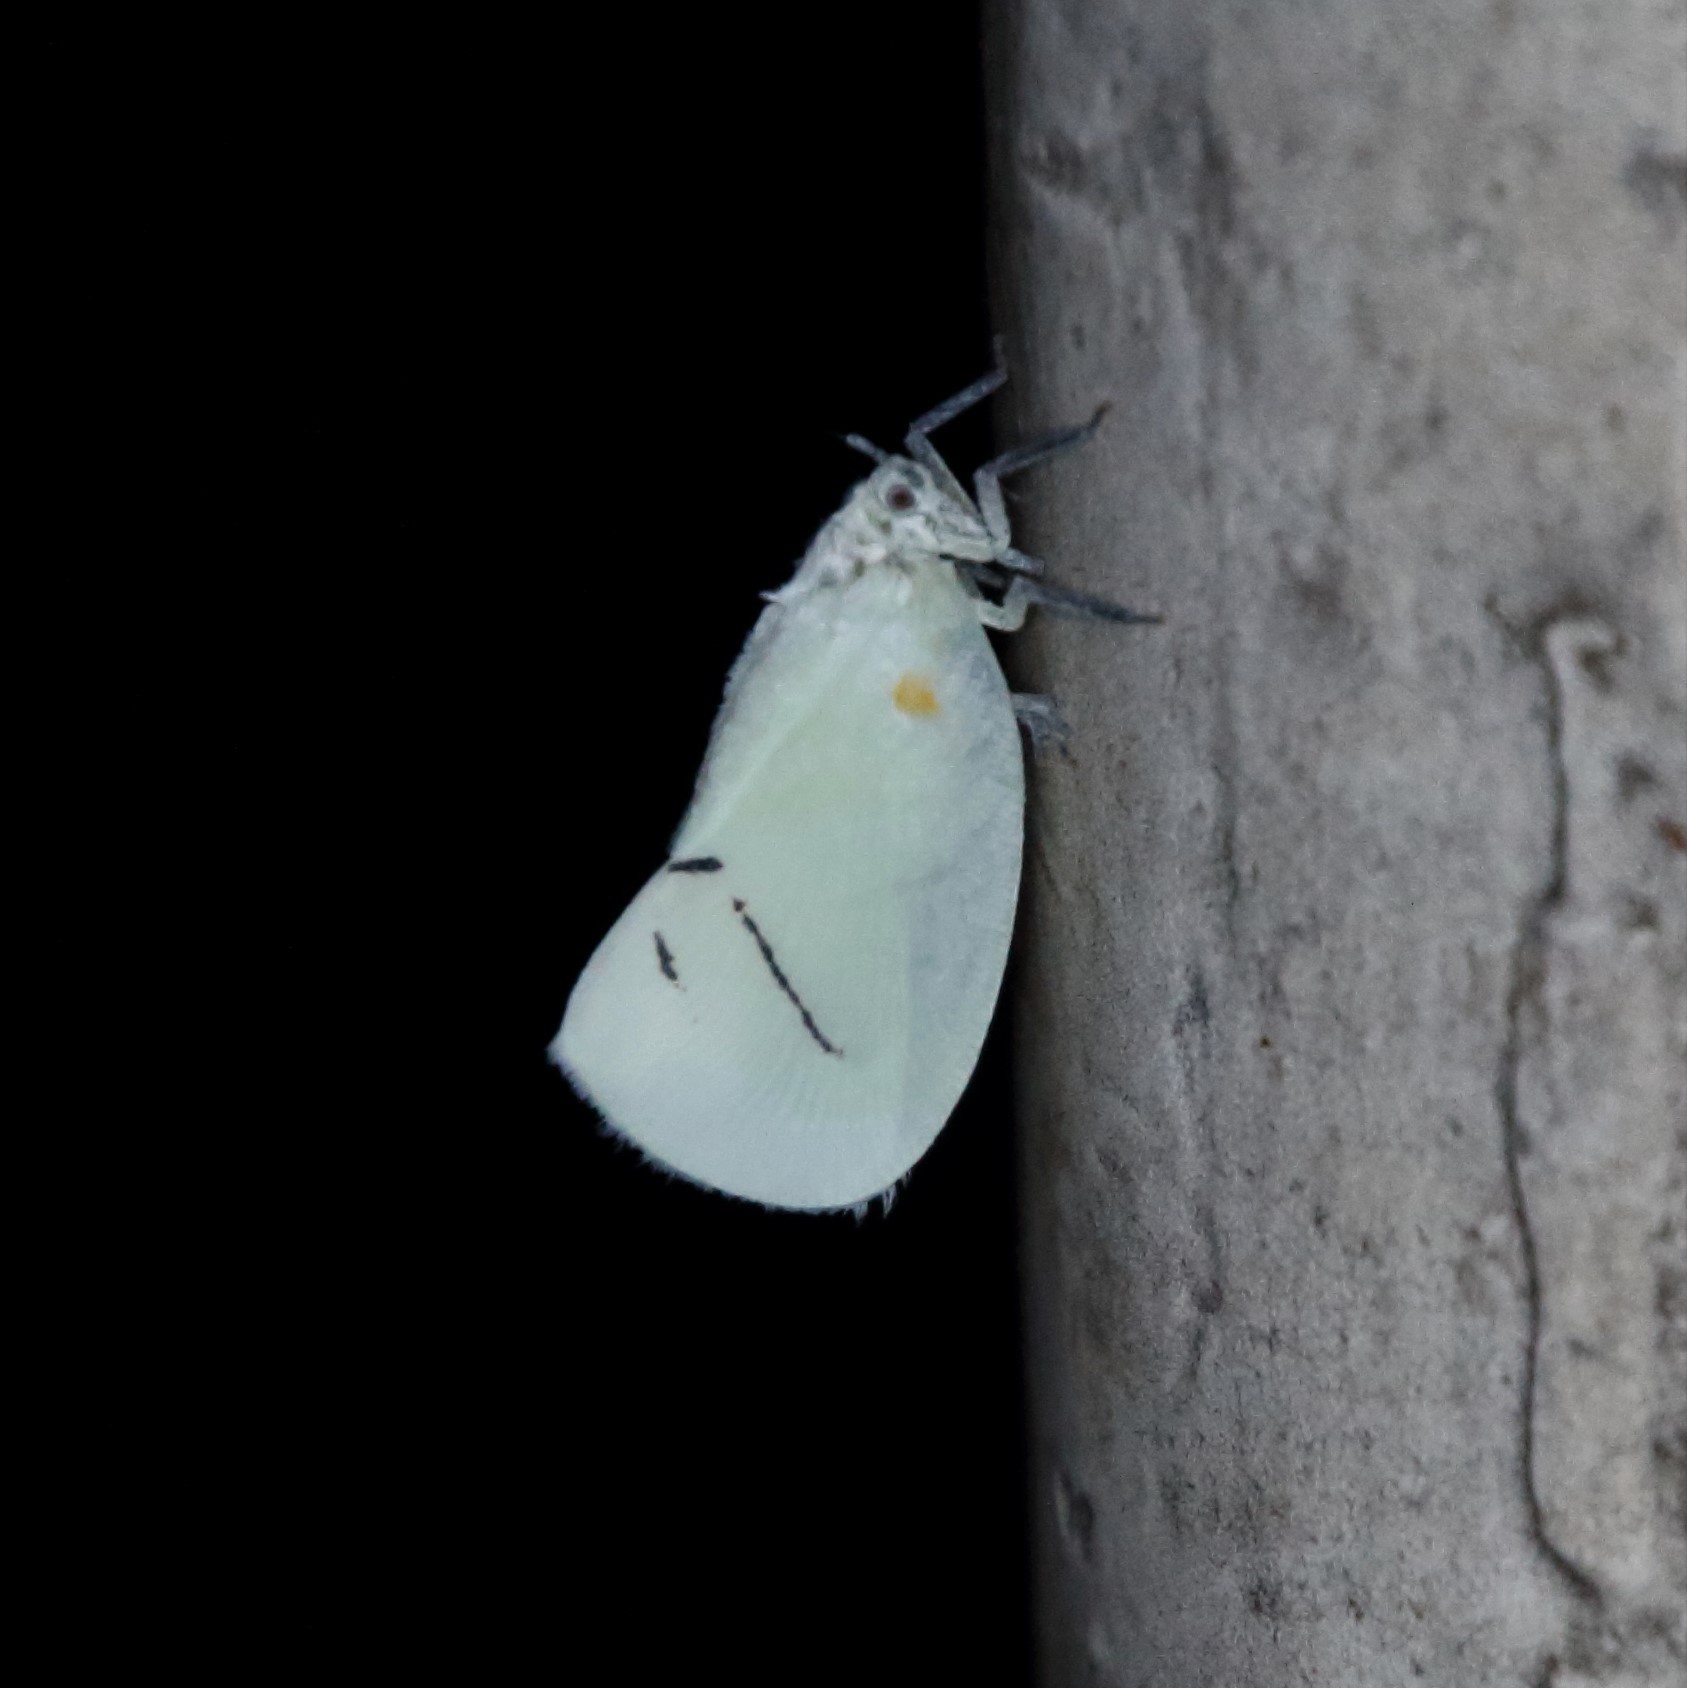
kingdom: Animalia
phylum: Arthropoda
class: Insecta
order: Hemiptera
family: Flatidae
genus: Cerynia
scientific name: Cerynia maria
